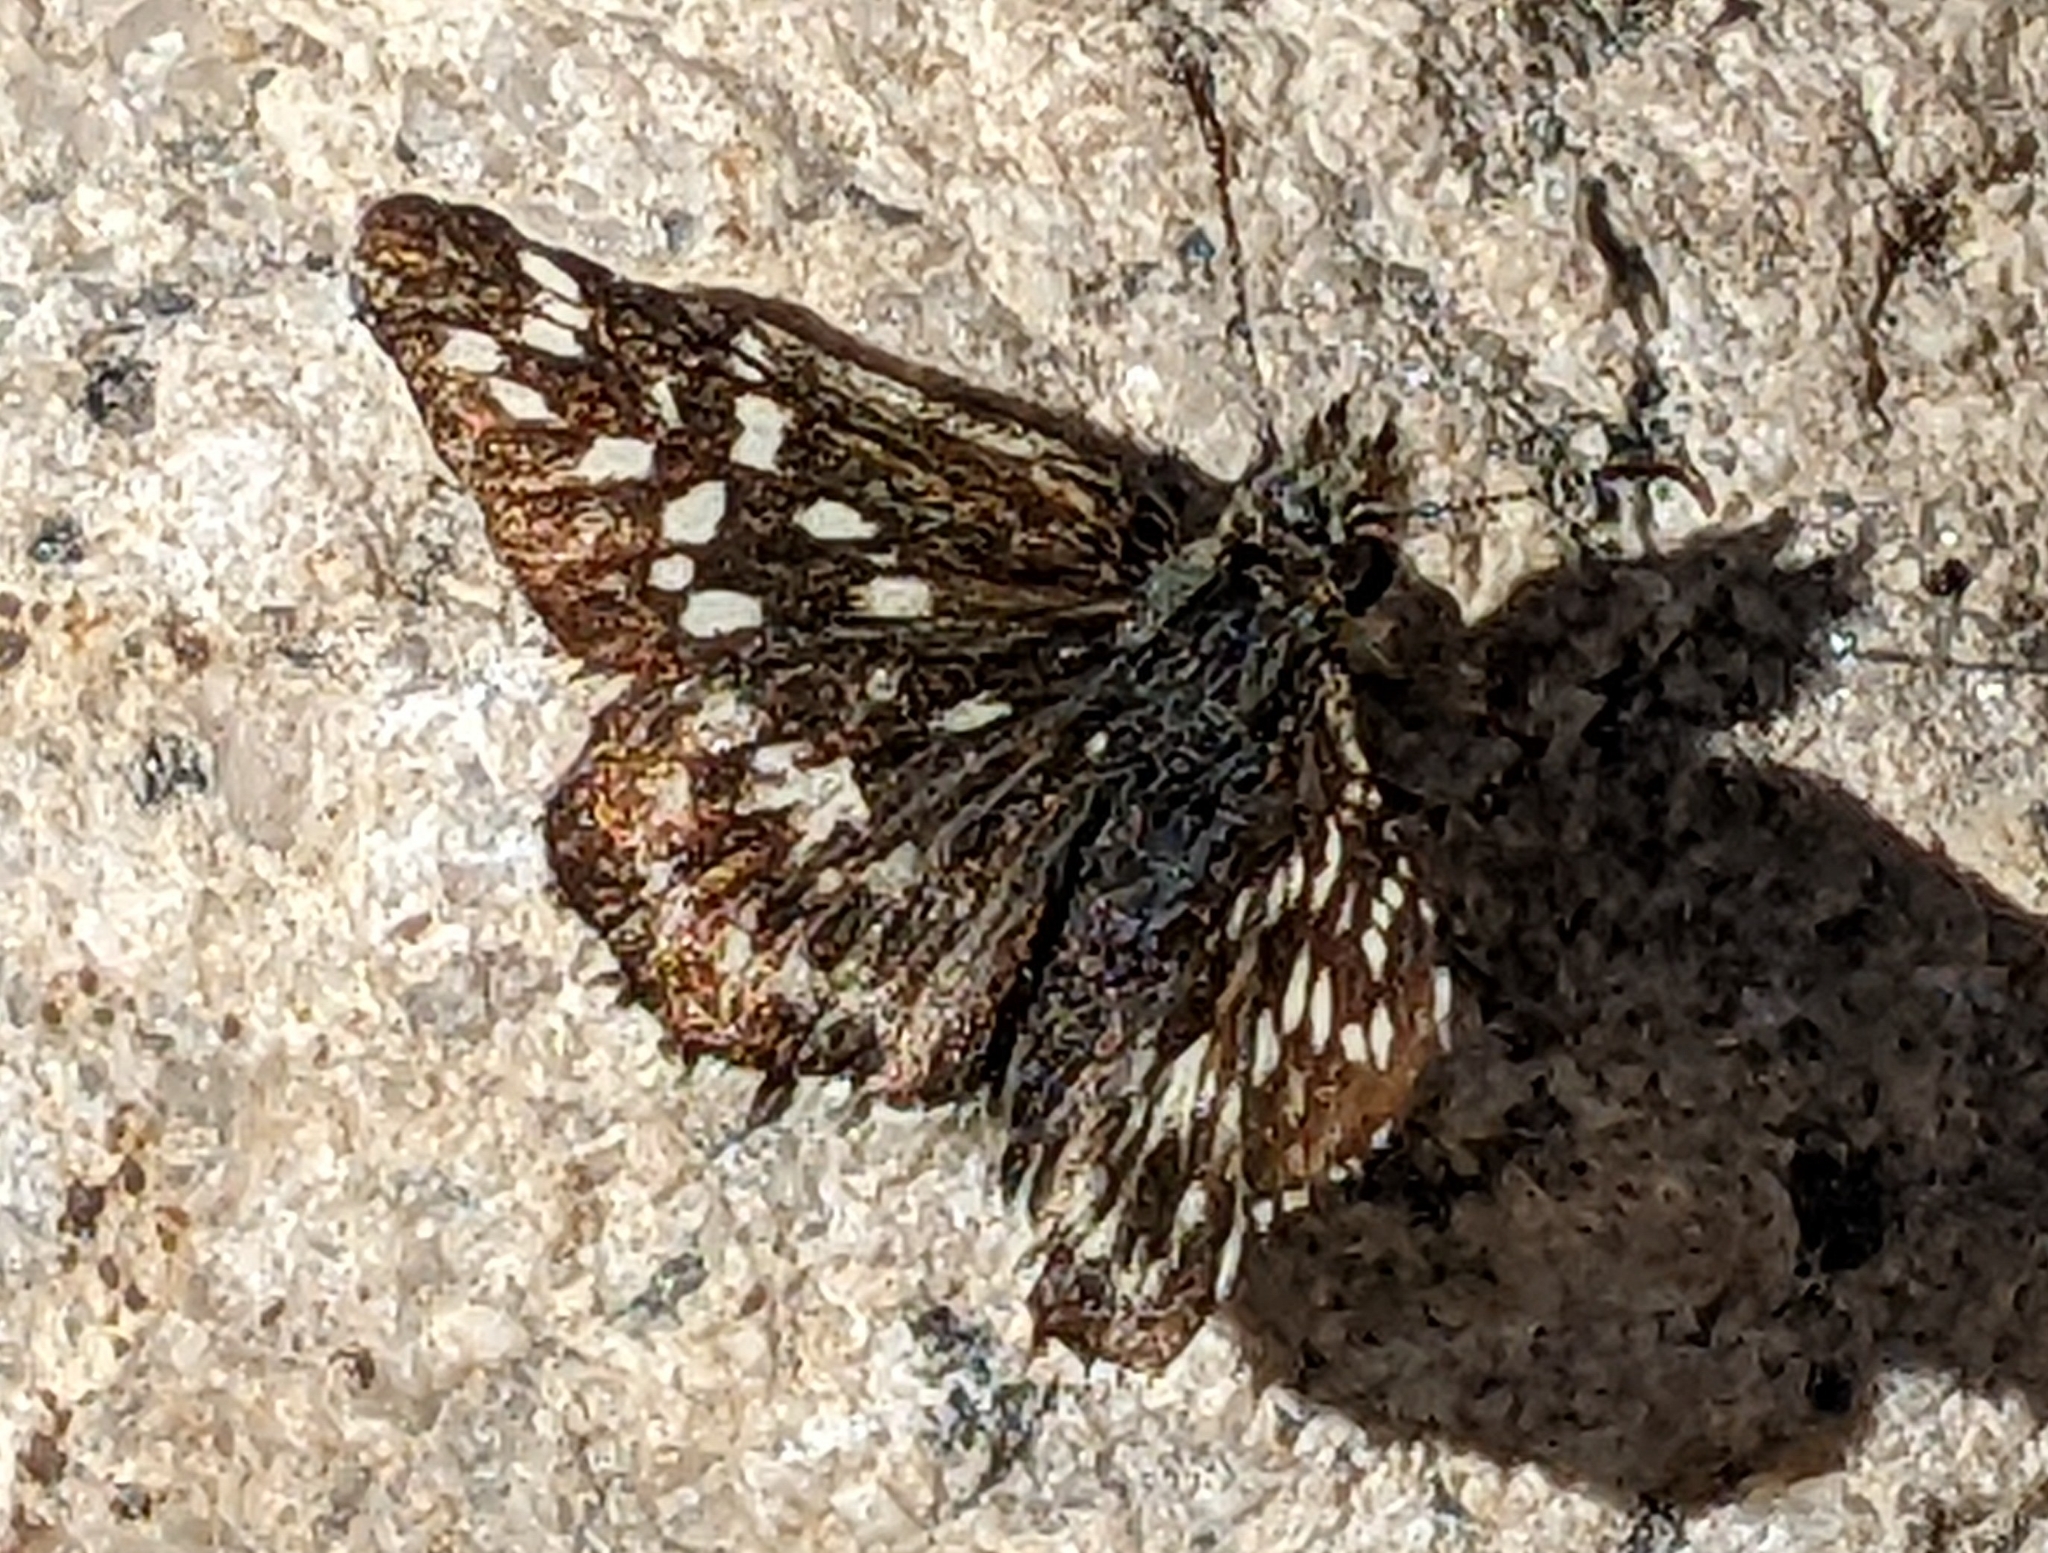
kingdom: Animalia
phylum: Arthropoda
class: Insecta
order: Lepidoptera
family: Hesperiidae
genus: Pyrgus
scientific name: Pyrgus ruralis
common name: Two-banded checkered-skipper
